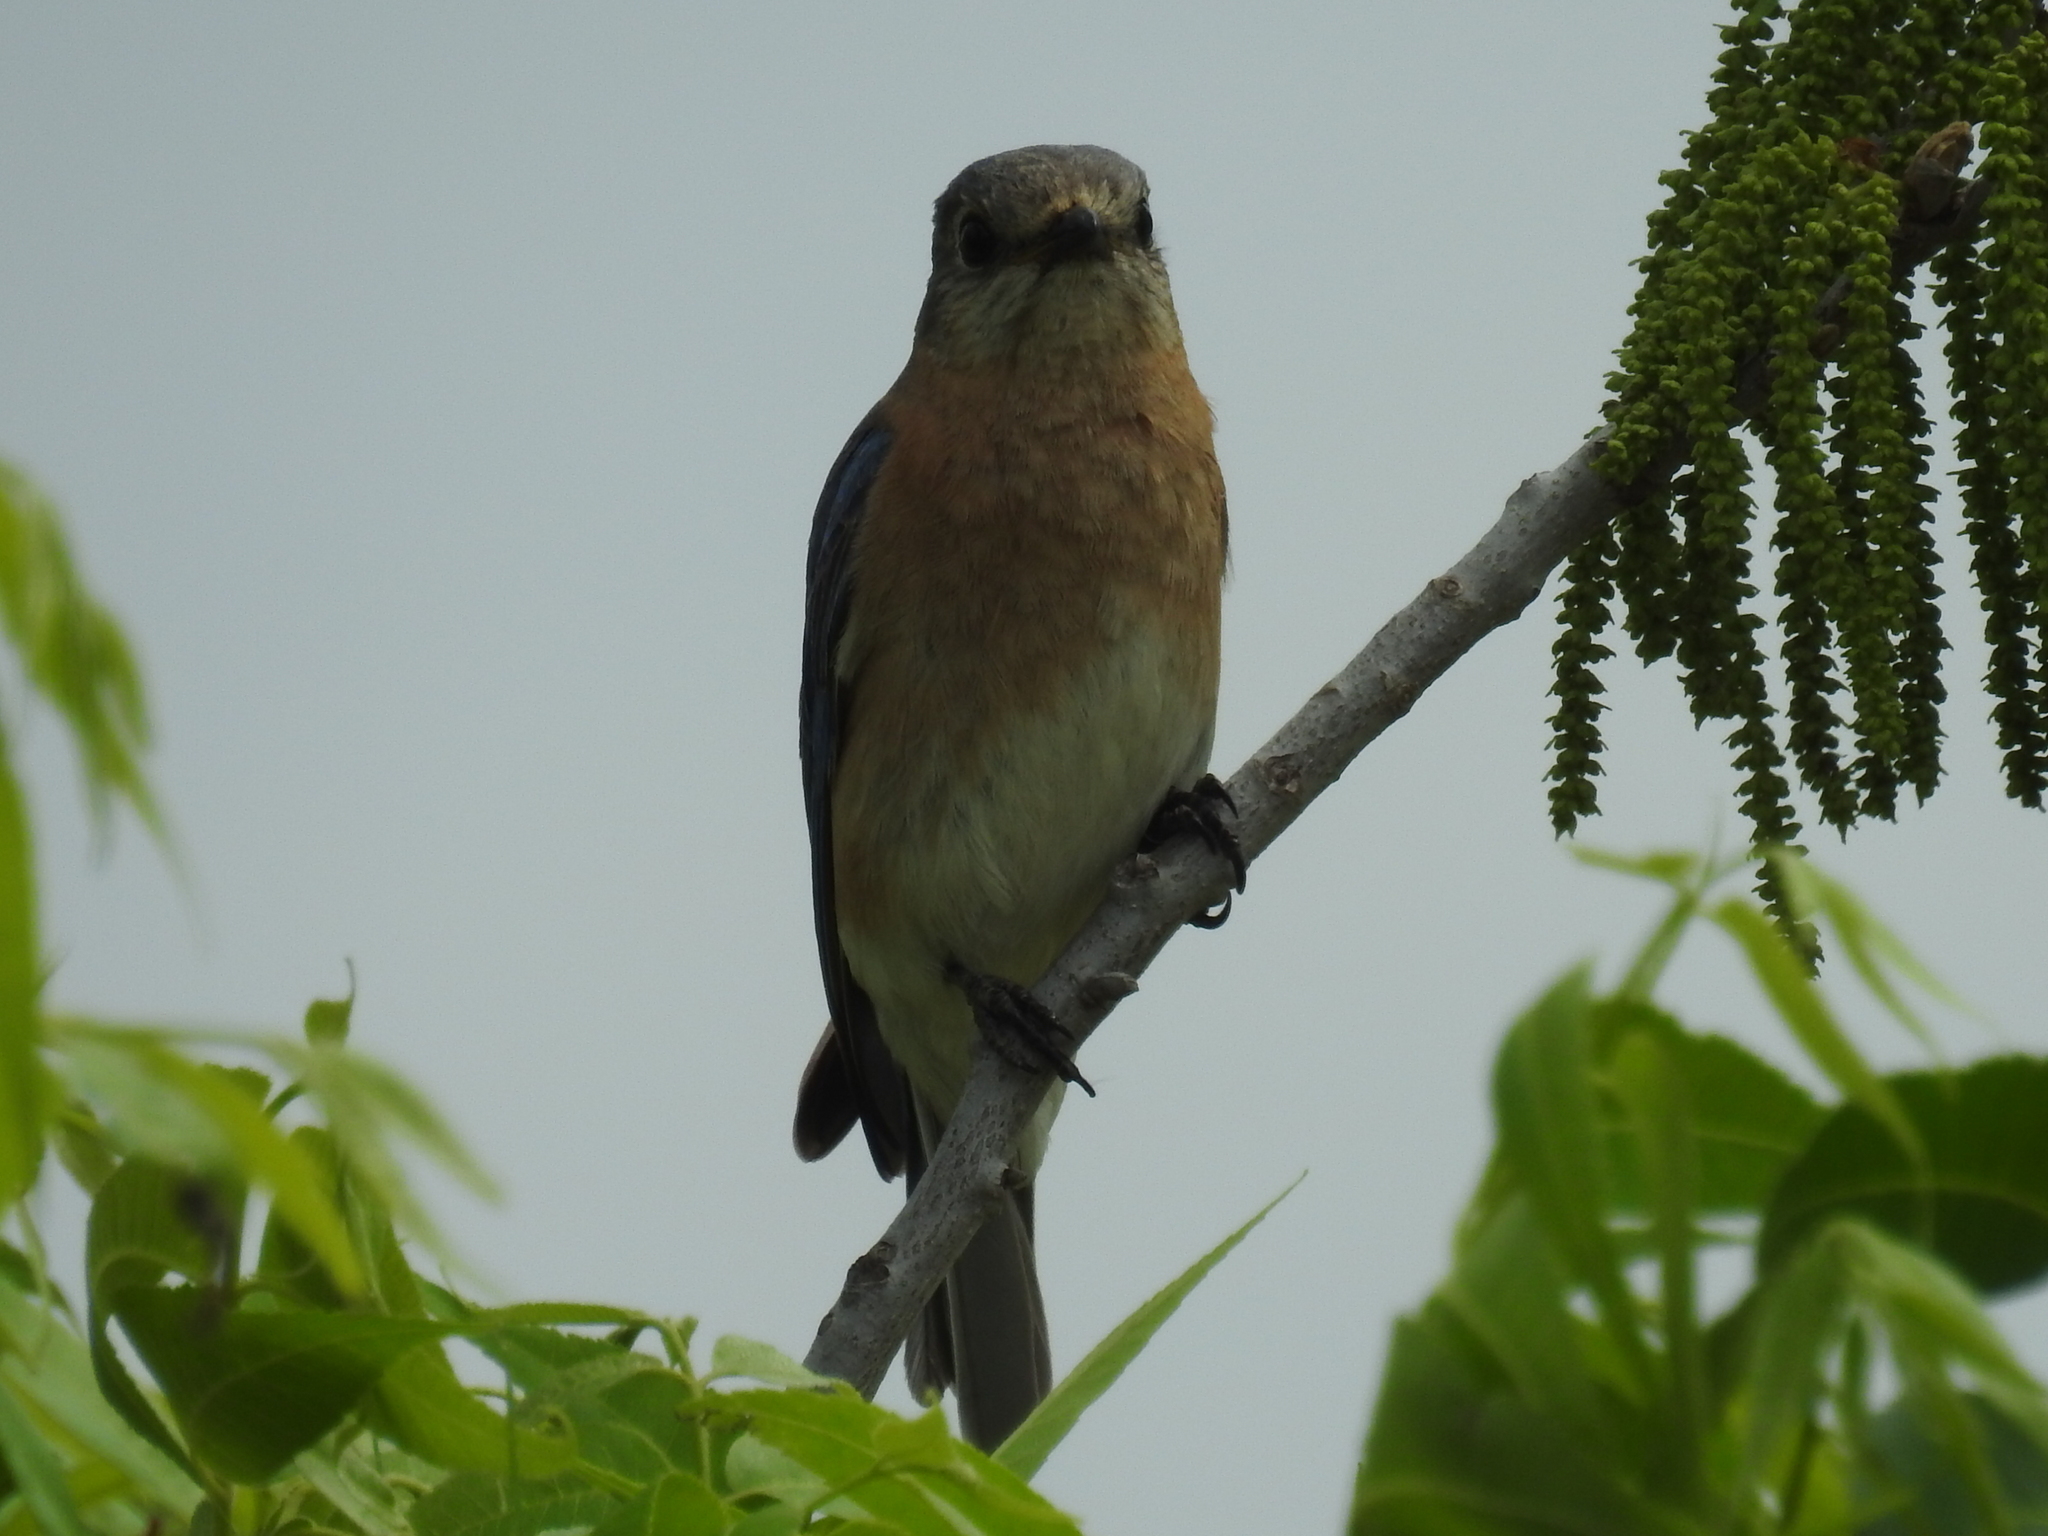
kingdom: Animalia
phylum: Chordata
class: Aves
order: Passeriformes
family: Turdidae
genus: Sialia
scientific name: Sialia sialis
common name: Eastern bluebird
